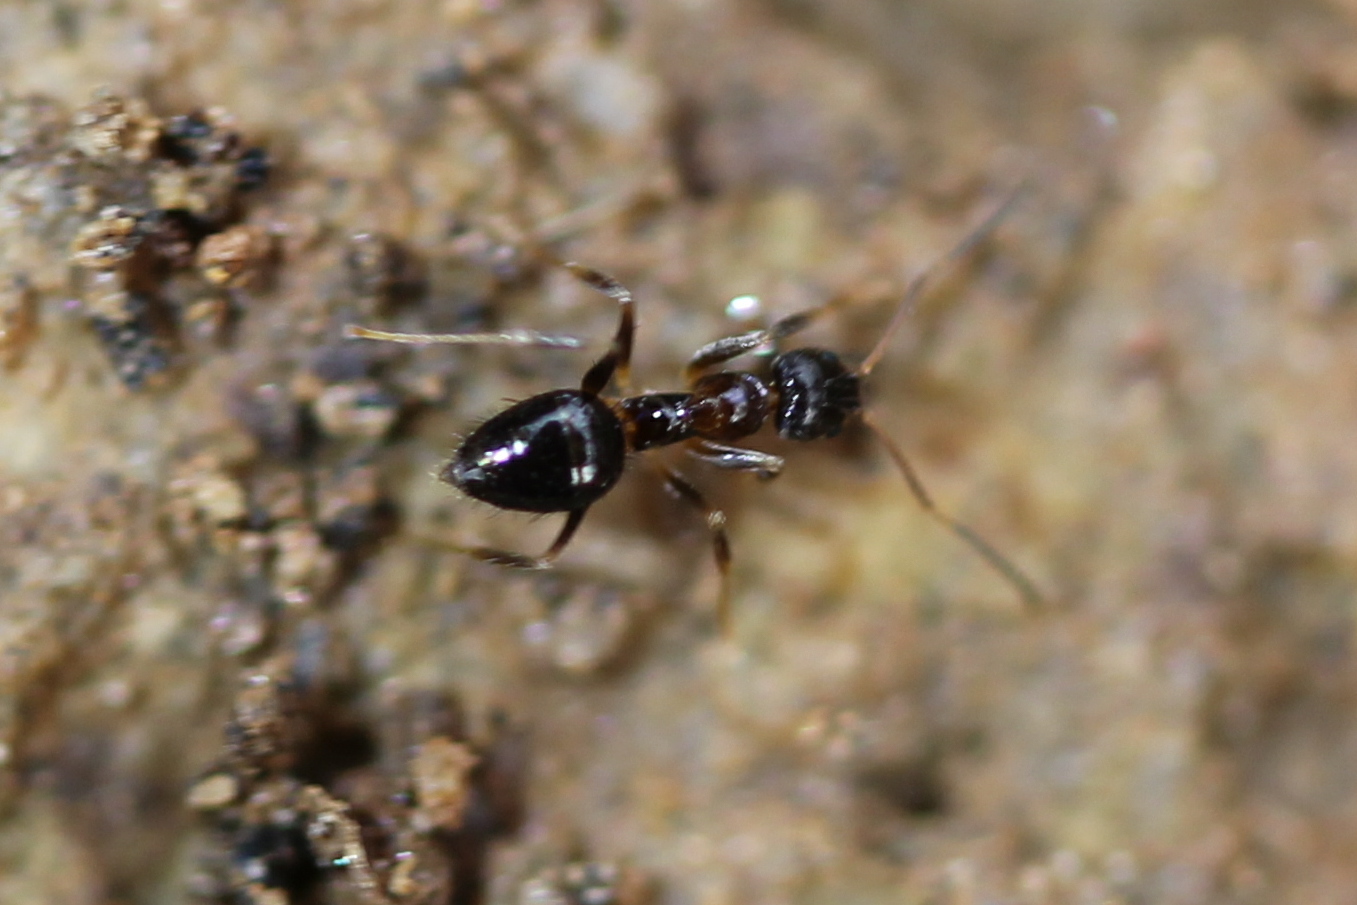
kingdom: Animalia
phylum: Arthropoda
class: Insecta
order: Hymenoptera
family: Formicidae
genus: Nylanderia
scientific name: Nylanderia faisonensis
